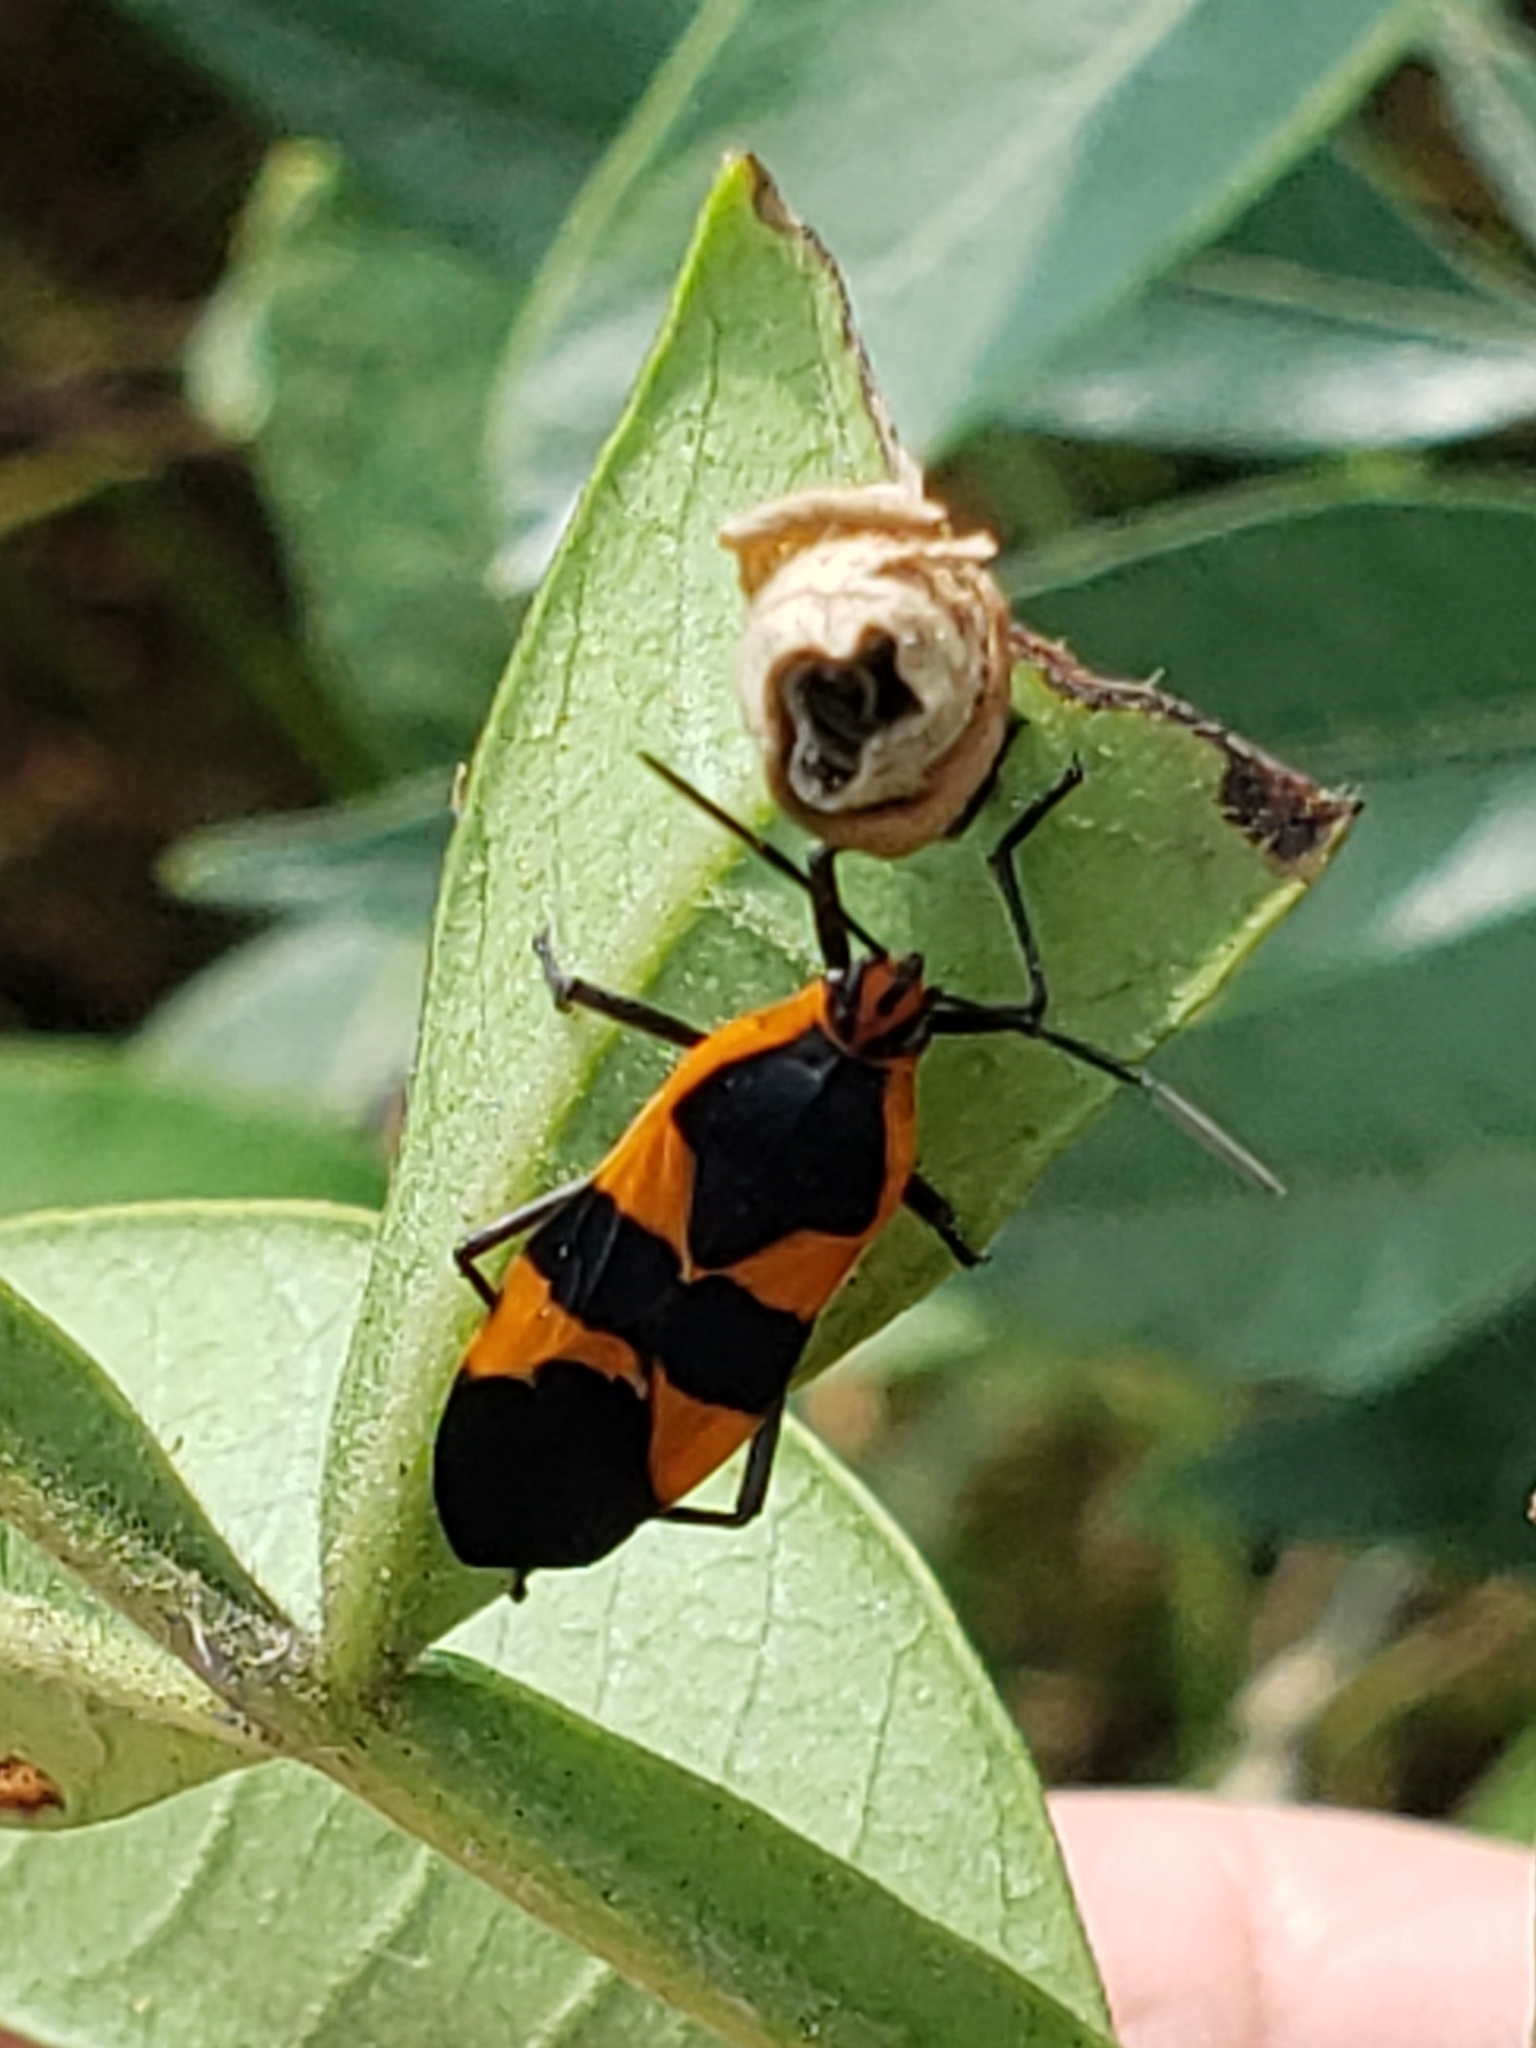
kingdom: Animalia
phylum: Arthropoda
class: Insecta
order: Hemiptera
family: Lygaeidae
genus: Oncopeltus
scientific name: Oncopeltus fasciatus
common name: Large milkweed bug
